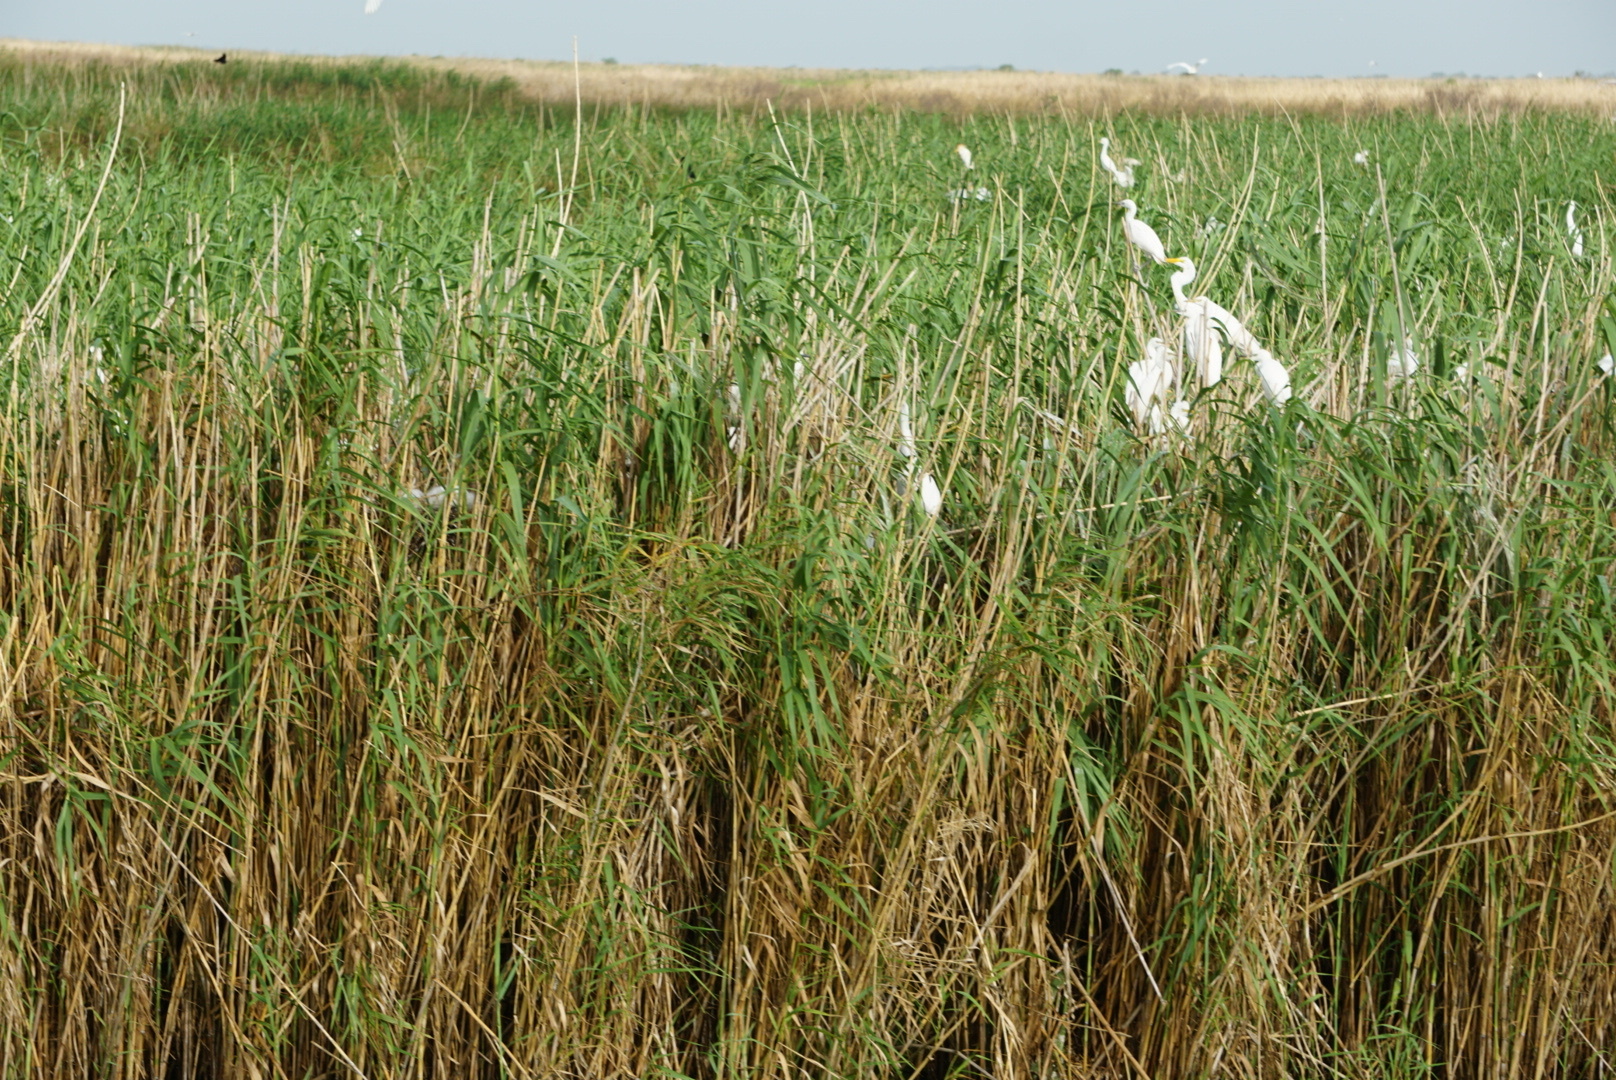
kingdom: Animalia
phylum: Chordata
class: Aves
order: Pelecaniformes
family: Ardeidae
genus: Bubulcus
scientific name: Bubulcus ibis
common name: Cattle egret
